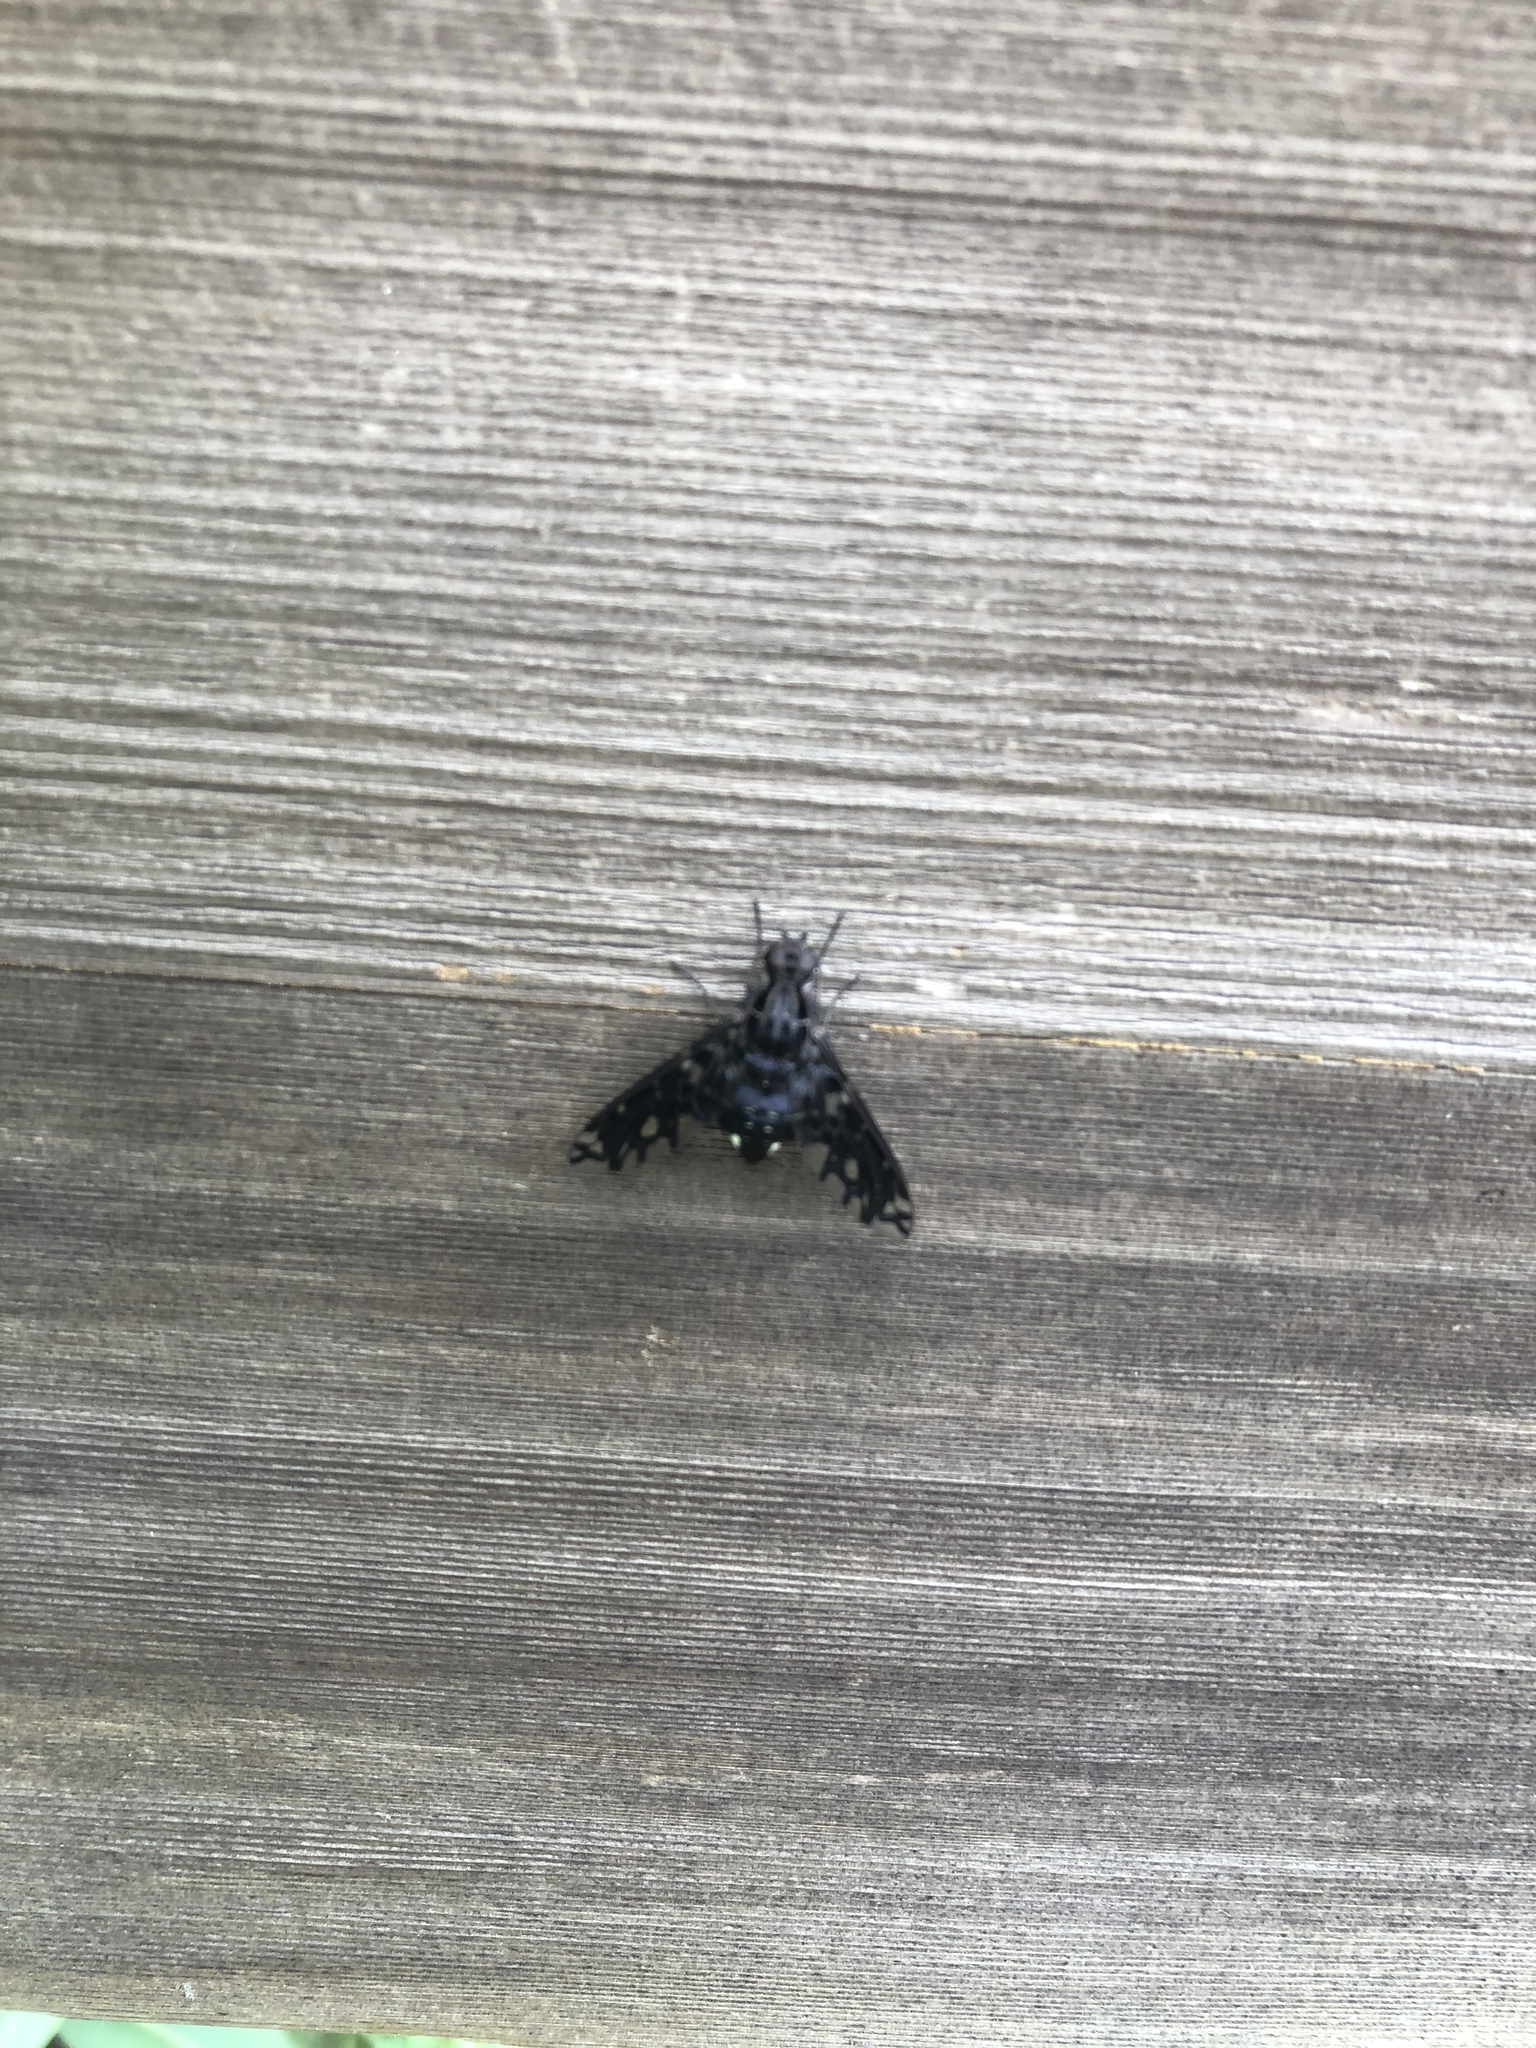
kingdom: Animalia
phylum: Arthropoda
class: Insecta
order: Diptera
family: Bombyliidae
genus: Xenox
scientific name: Xenox tigrinus
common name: Tiger bee fly
